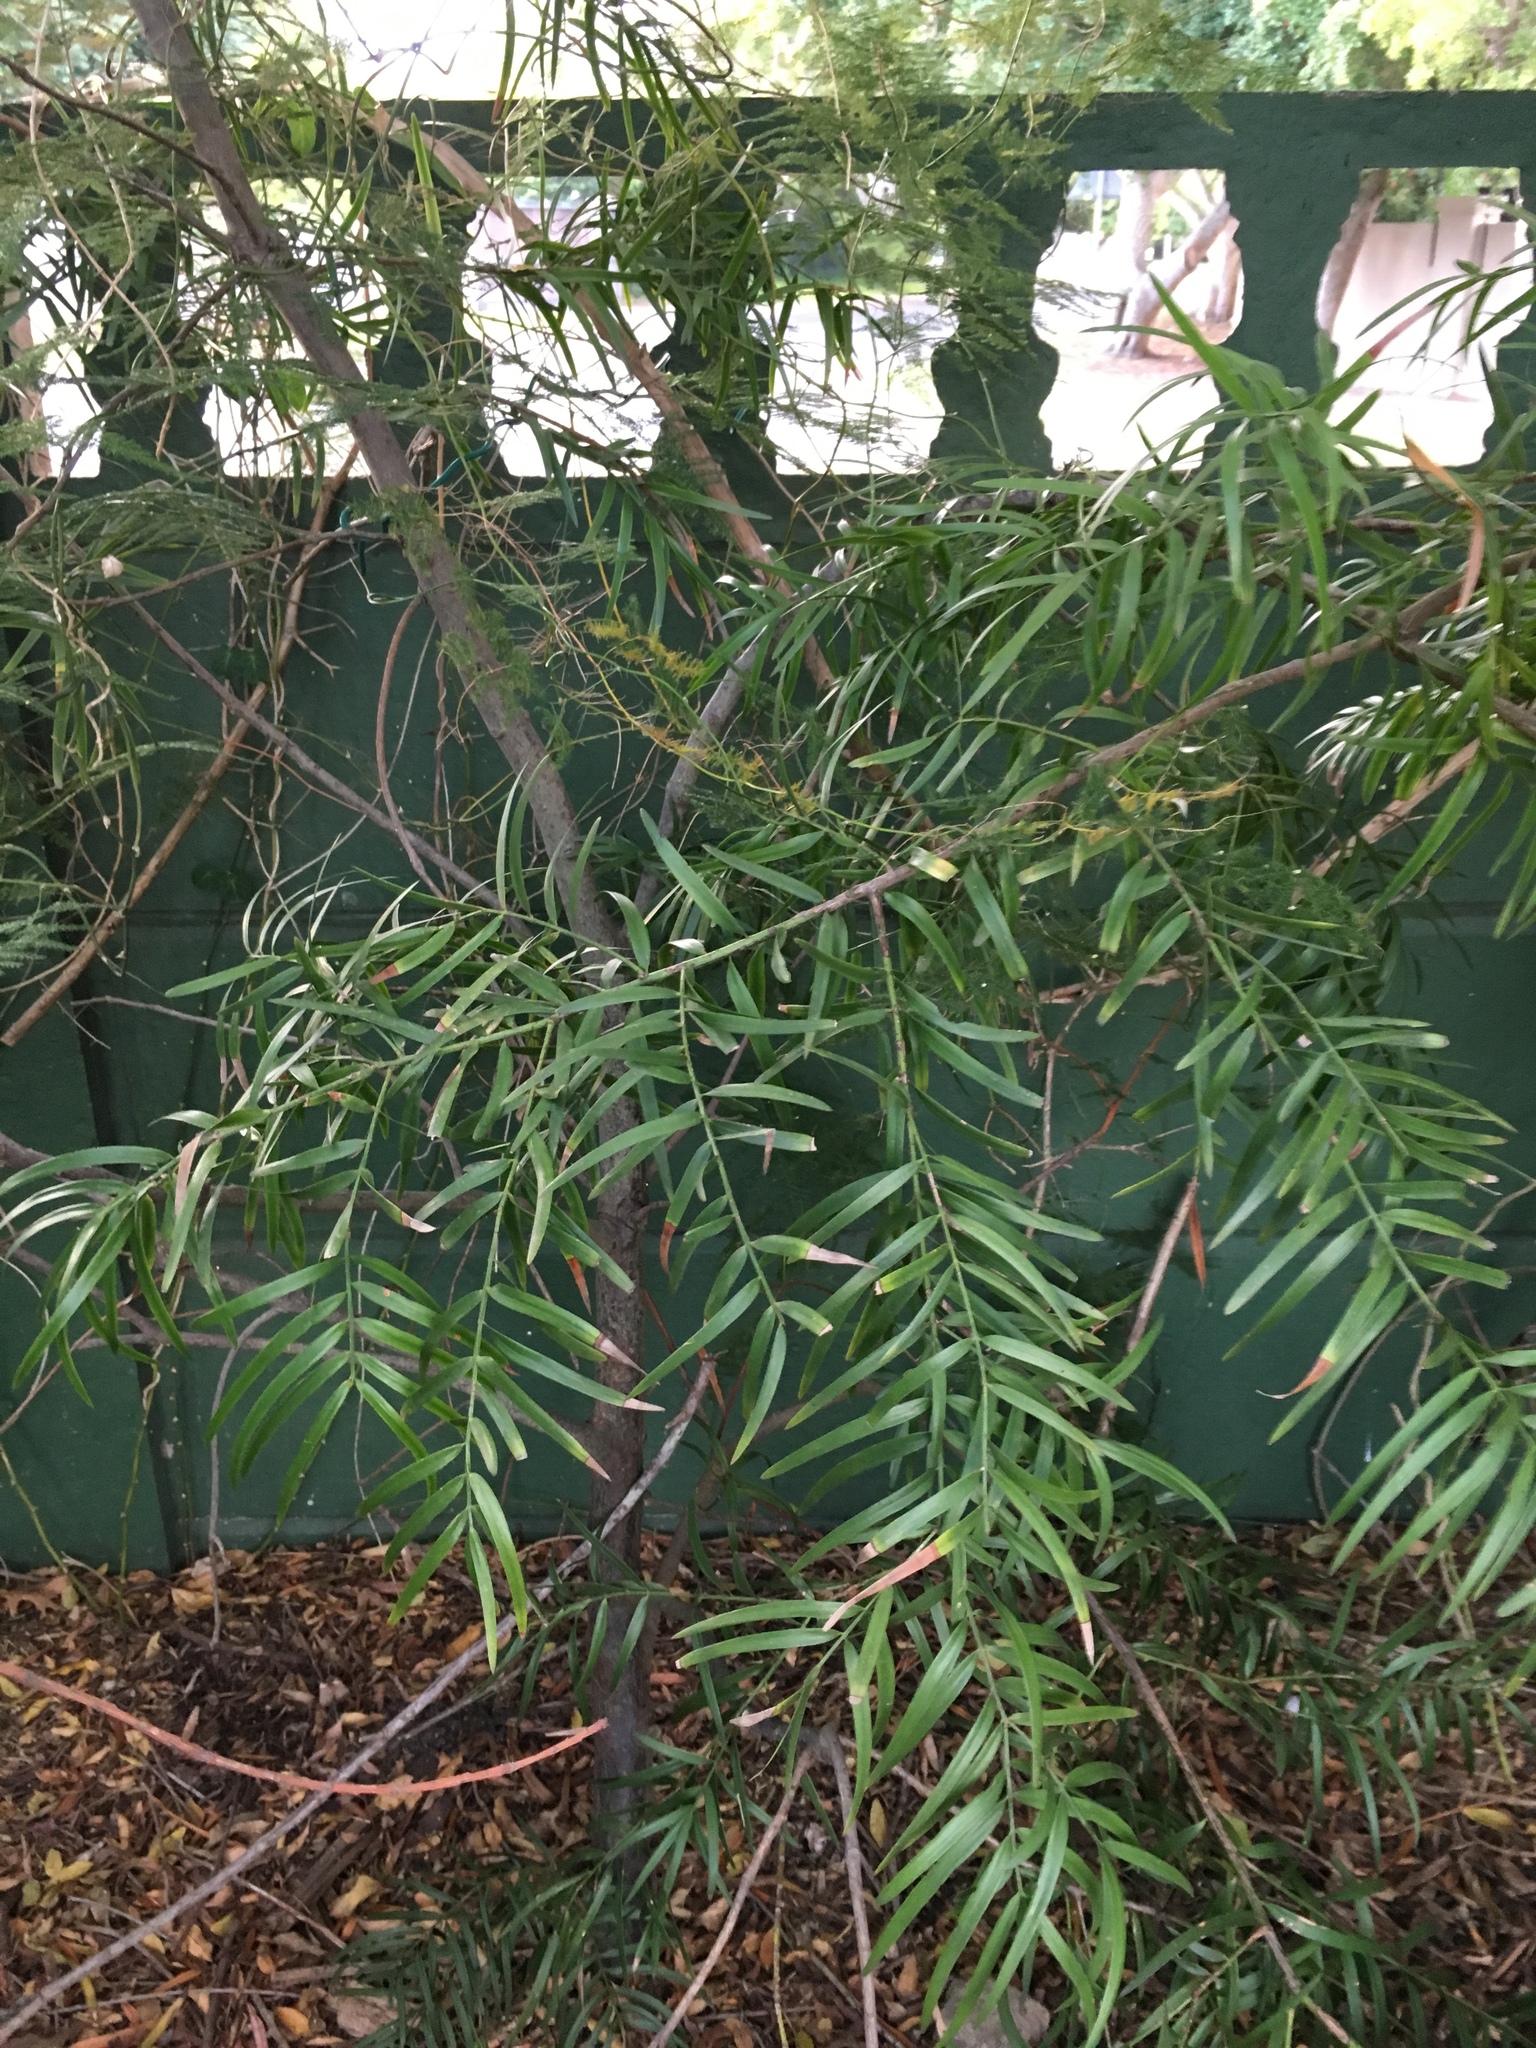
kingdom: Plantae
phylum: Tracheophyta
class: Pinopsida
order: Pinales
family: Podocarpaceae
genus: Podocarpus
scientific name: Podocarpus latifolius
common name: True yellowwood
